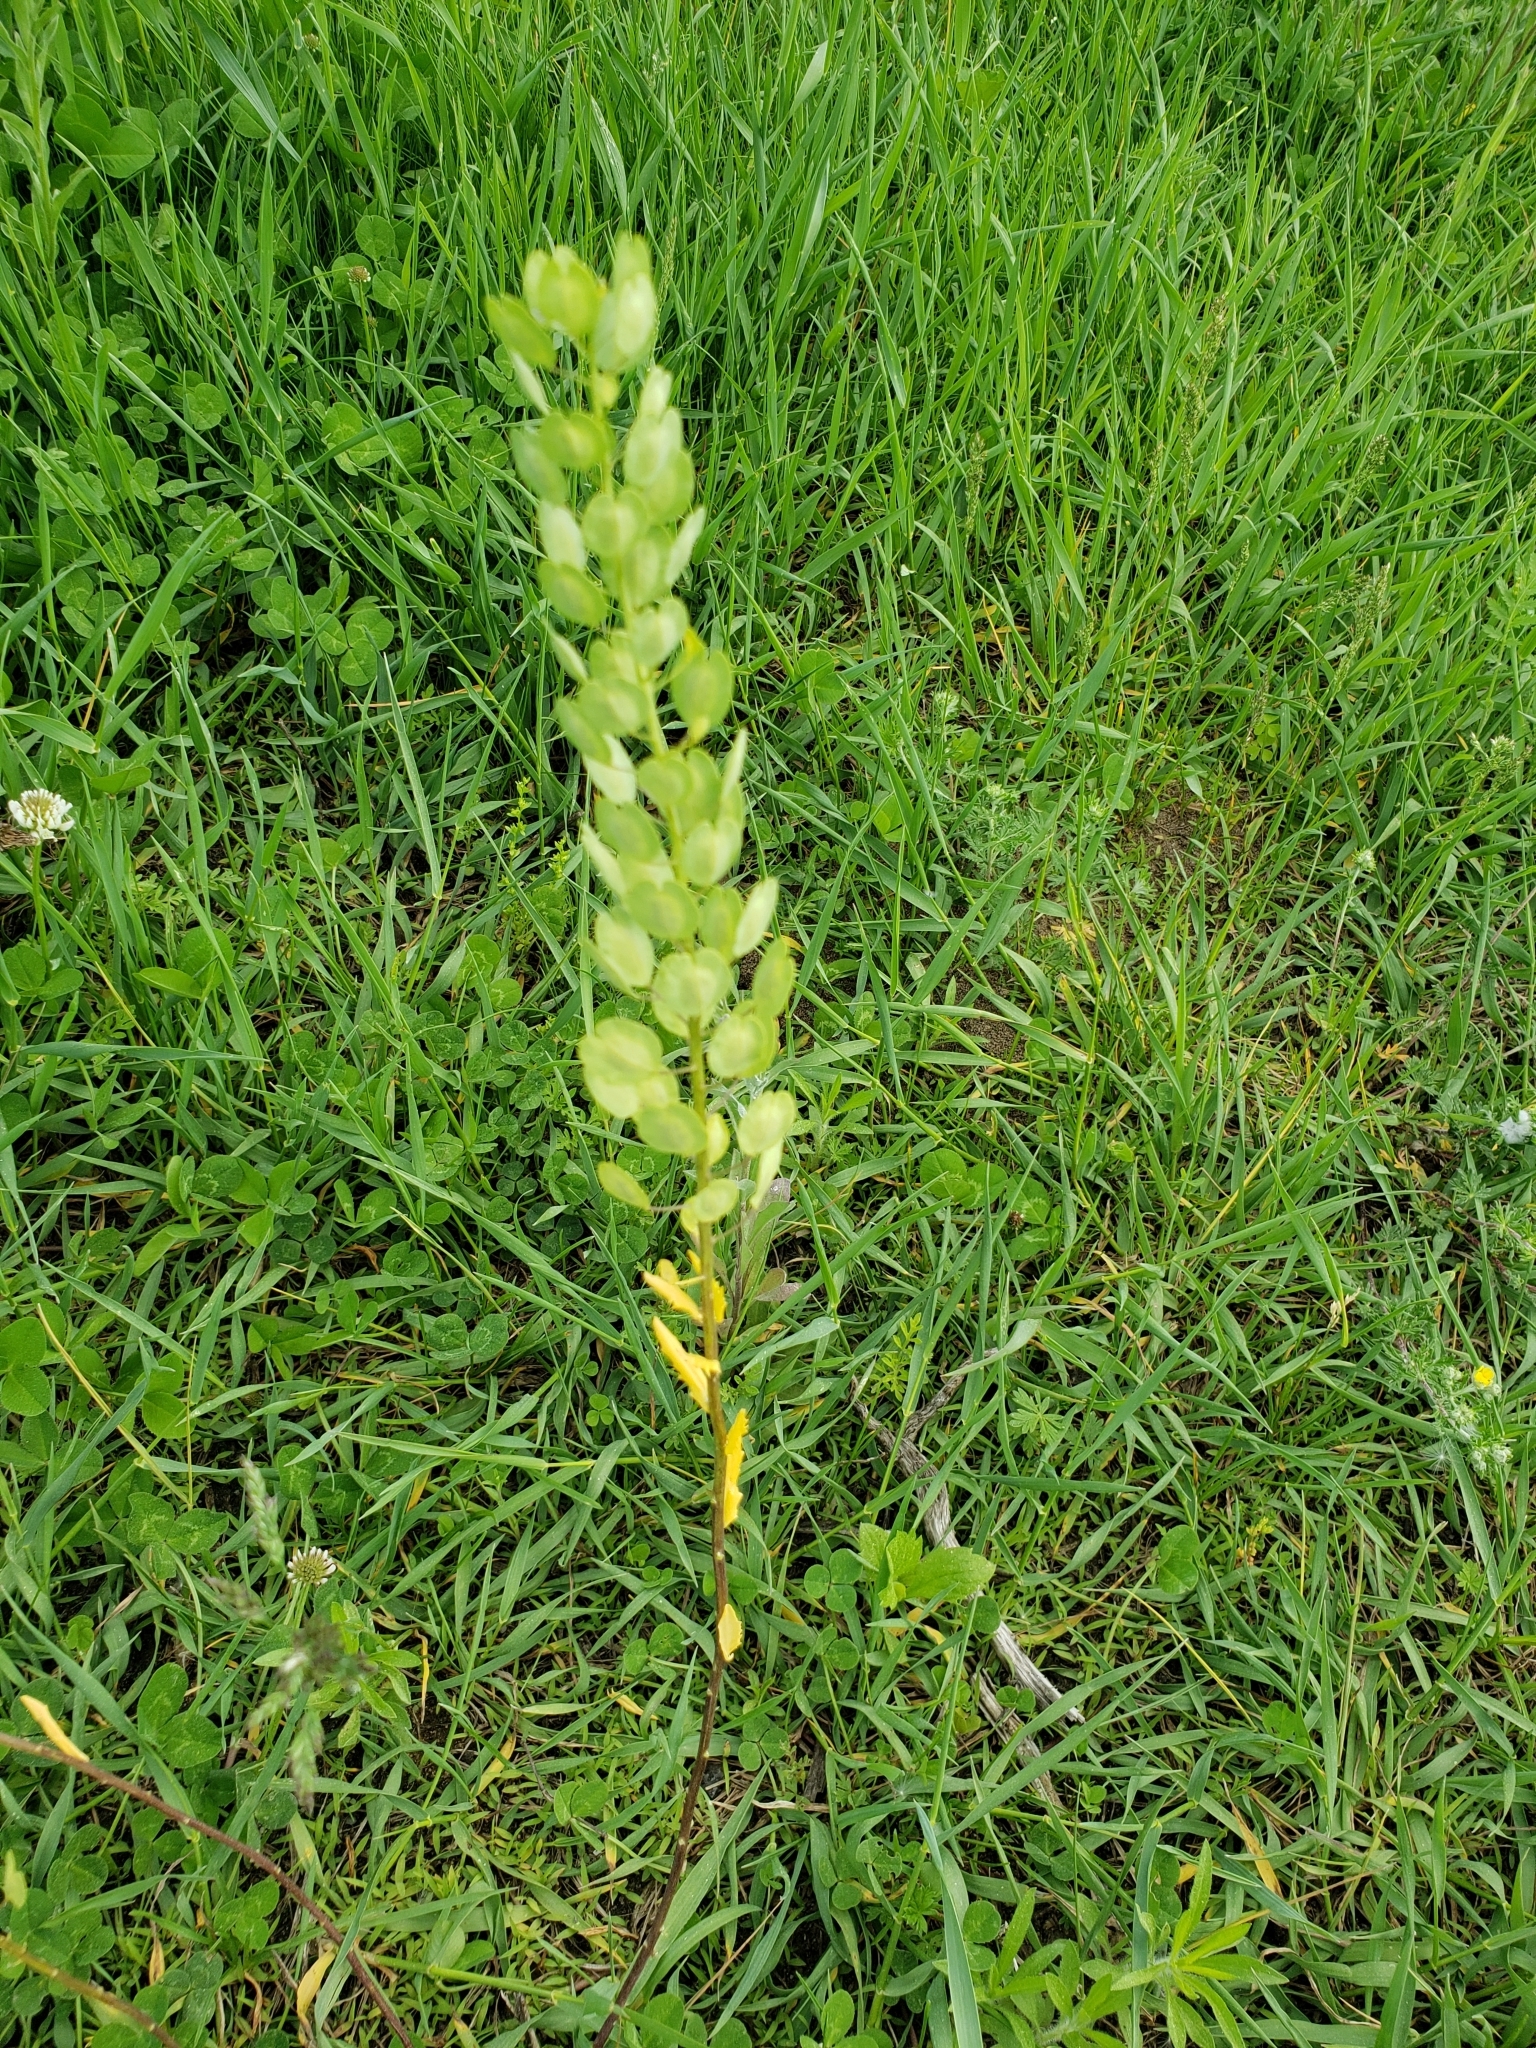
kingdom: Plantae
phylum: Tracheophyta
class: Magnoliopsida
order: Brassicales
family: Brassicaceae
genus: Thlaspi
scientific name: Thlaspi arvense
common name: Field pennycress
